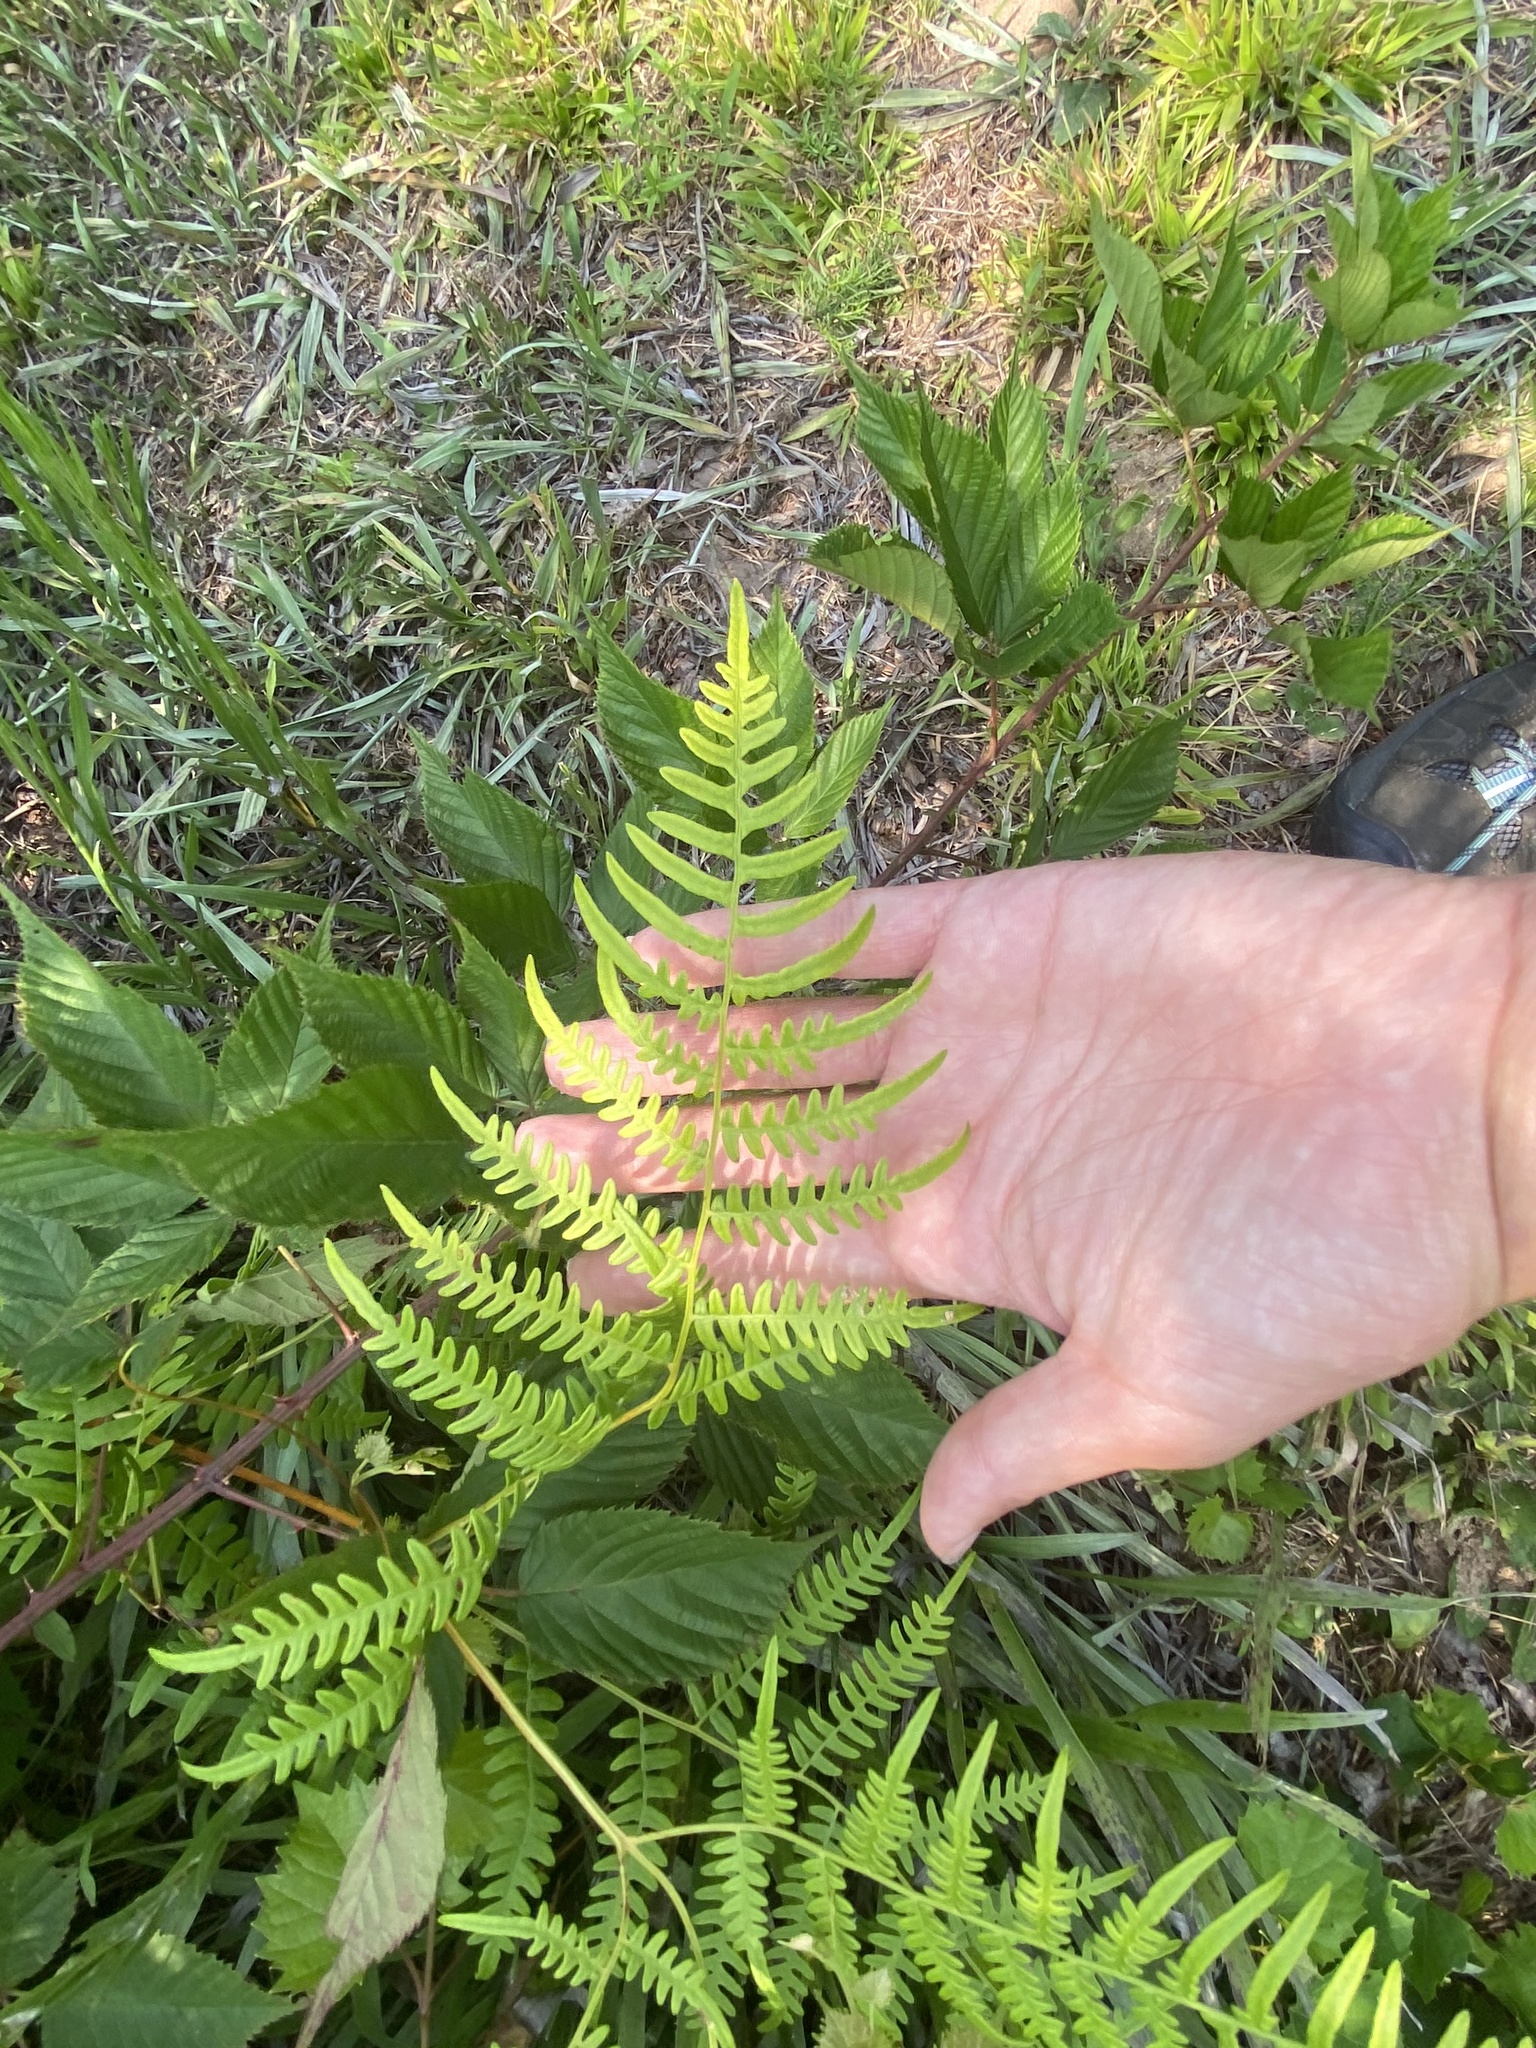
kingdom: Plantae
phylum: Tracheophyta
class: Polypodiopsida
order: Polypodiales
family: Dennstaedtiaceae
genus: Pteridium
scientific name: Pteridium aquilinum
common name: Bracken
